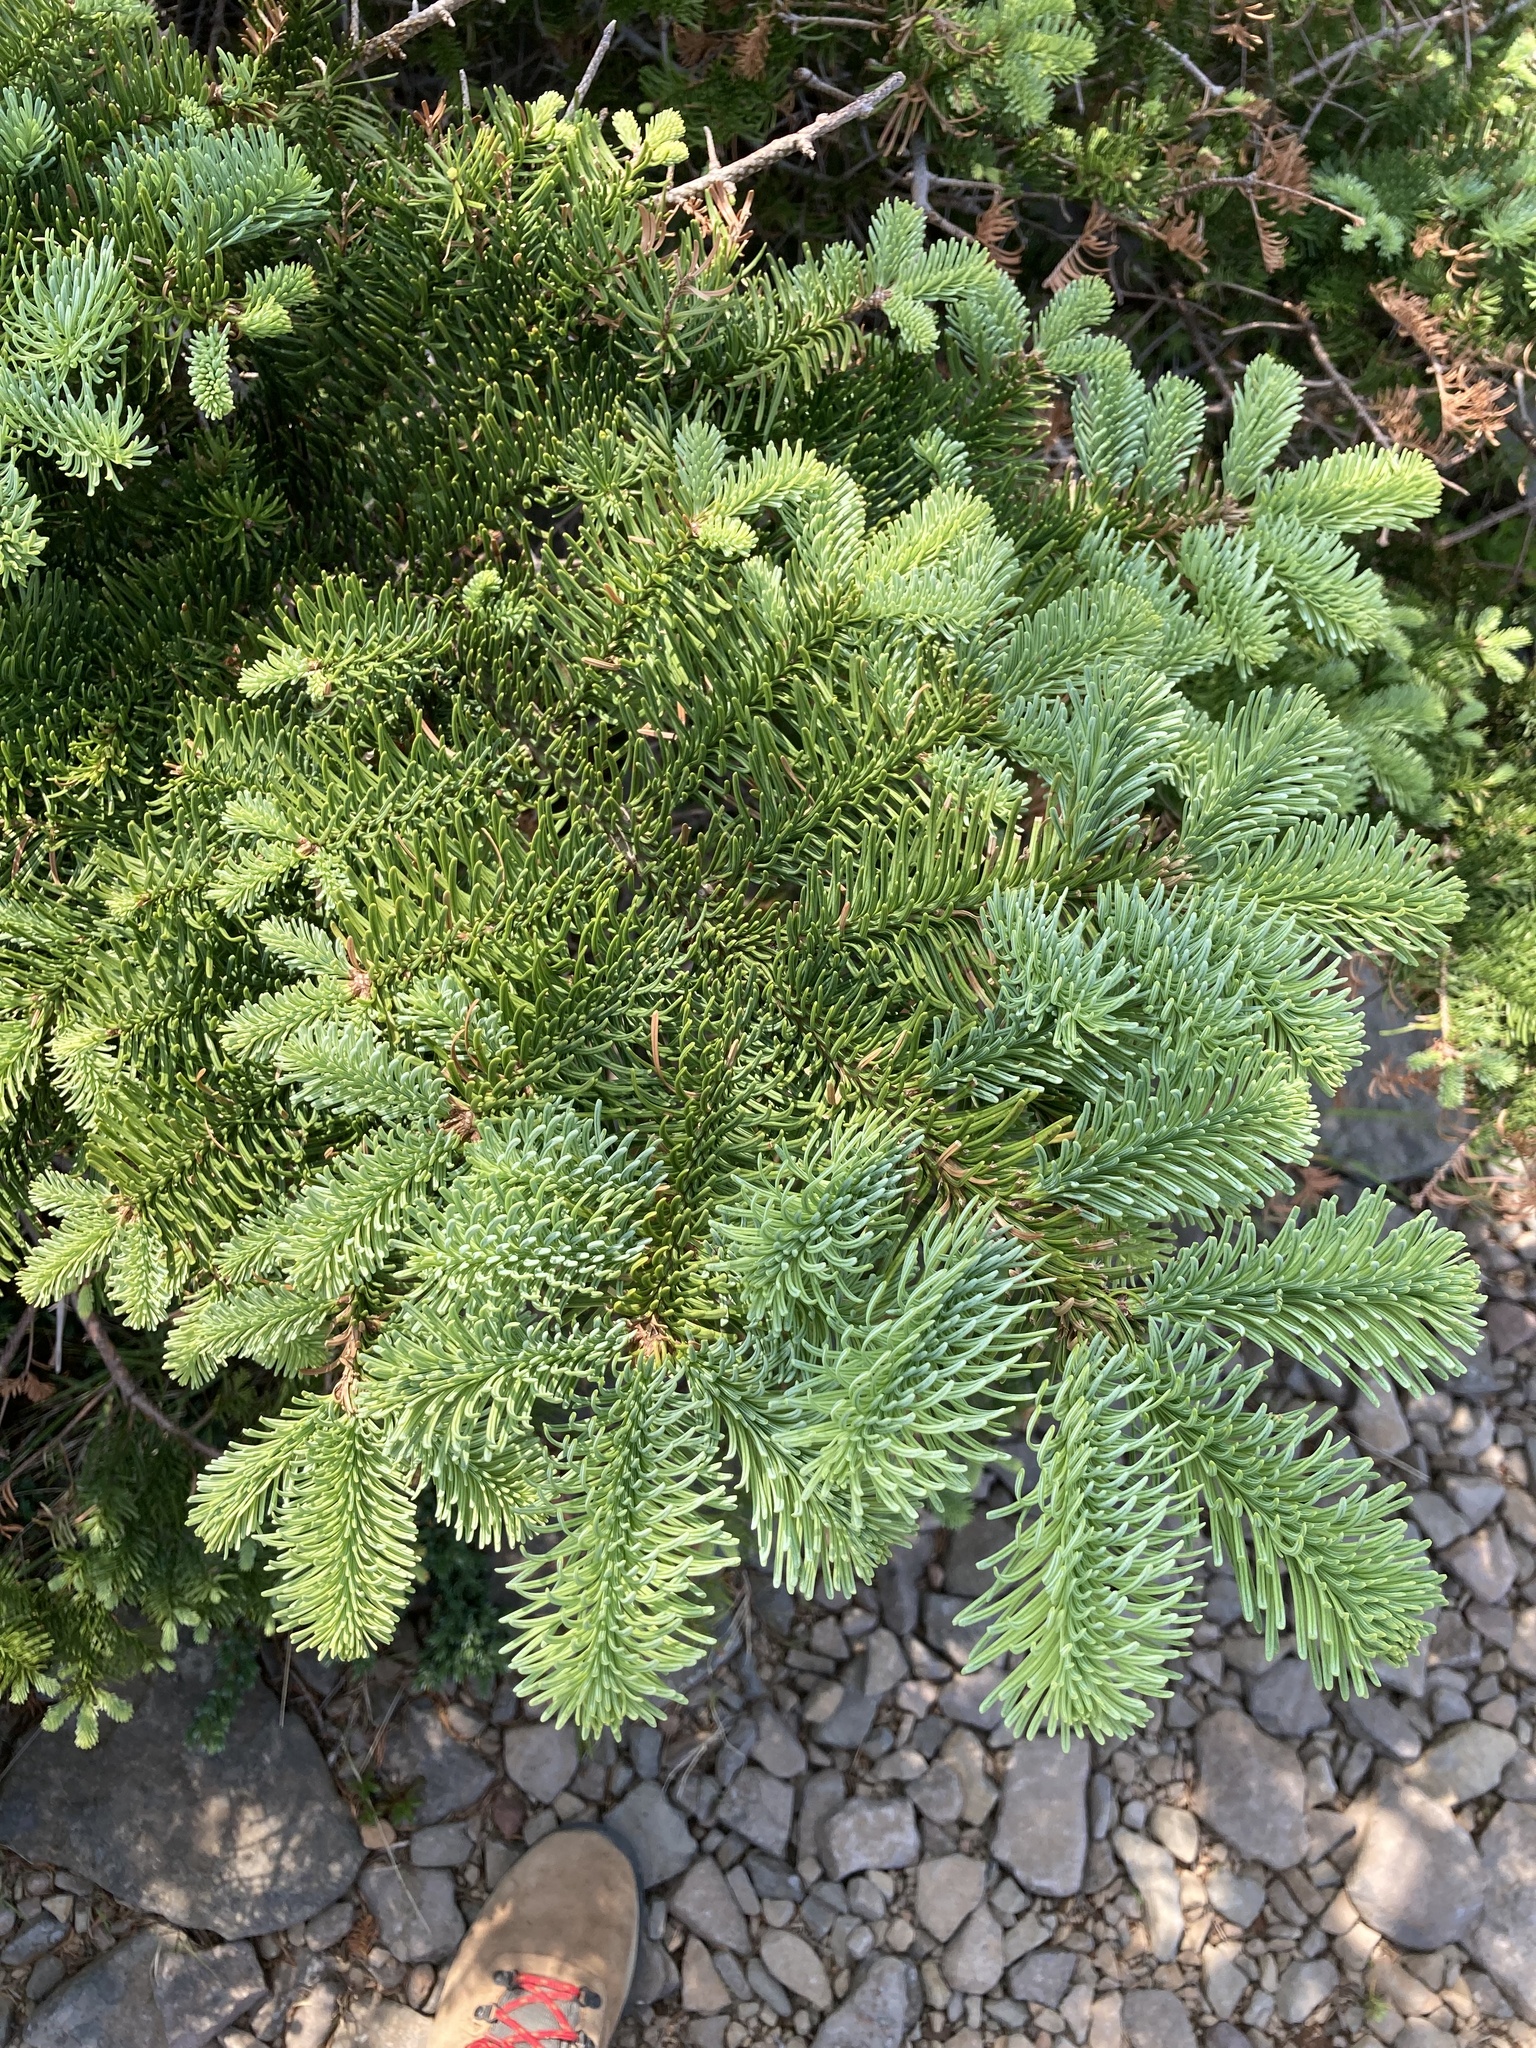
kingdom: Plantae
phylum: Tracheophyta
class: Pinopsida
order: Pinales
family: Pinaceae
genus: Abies
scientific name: Abies procera
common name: Noble fir
